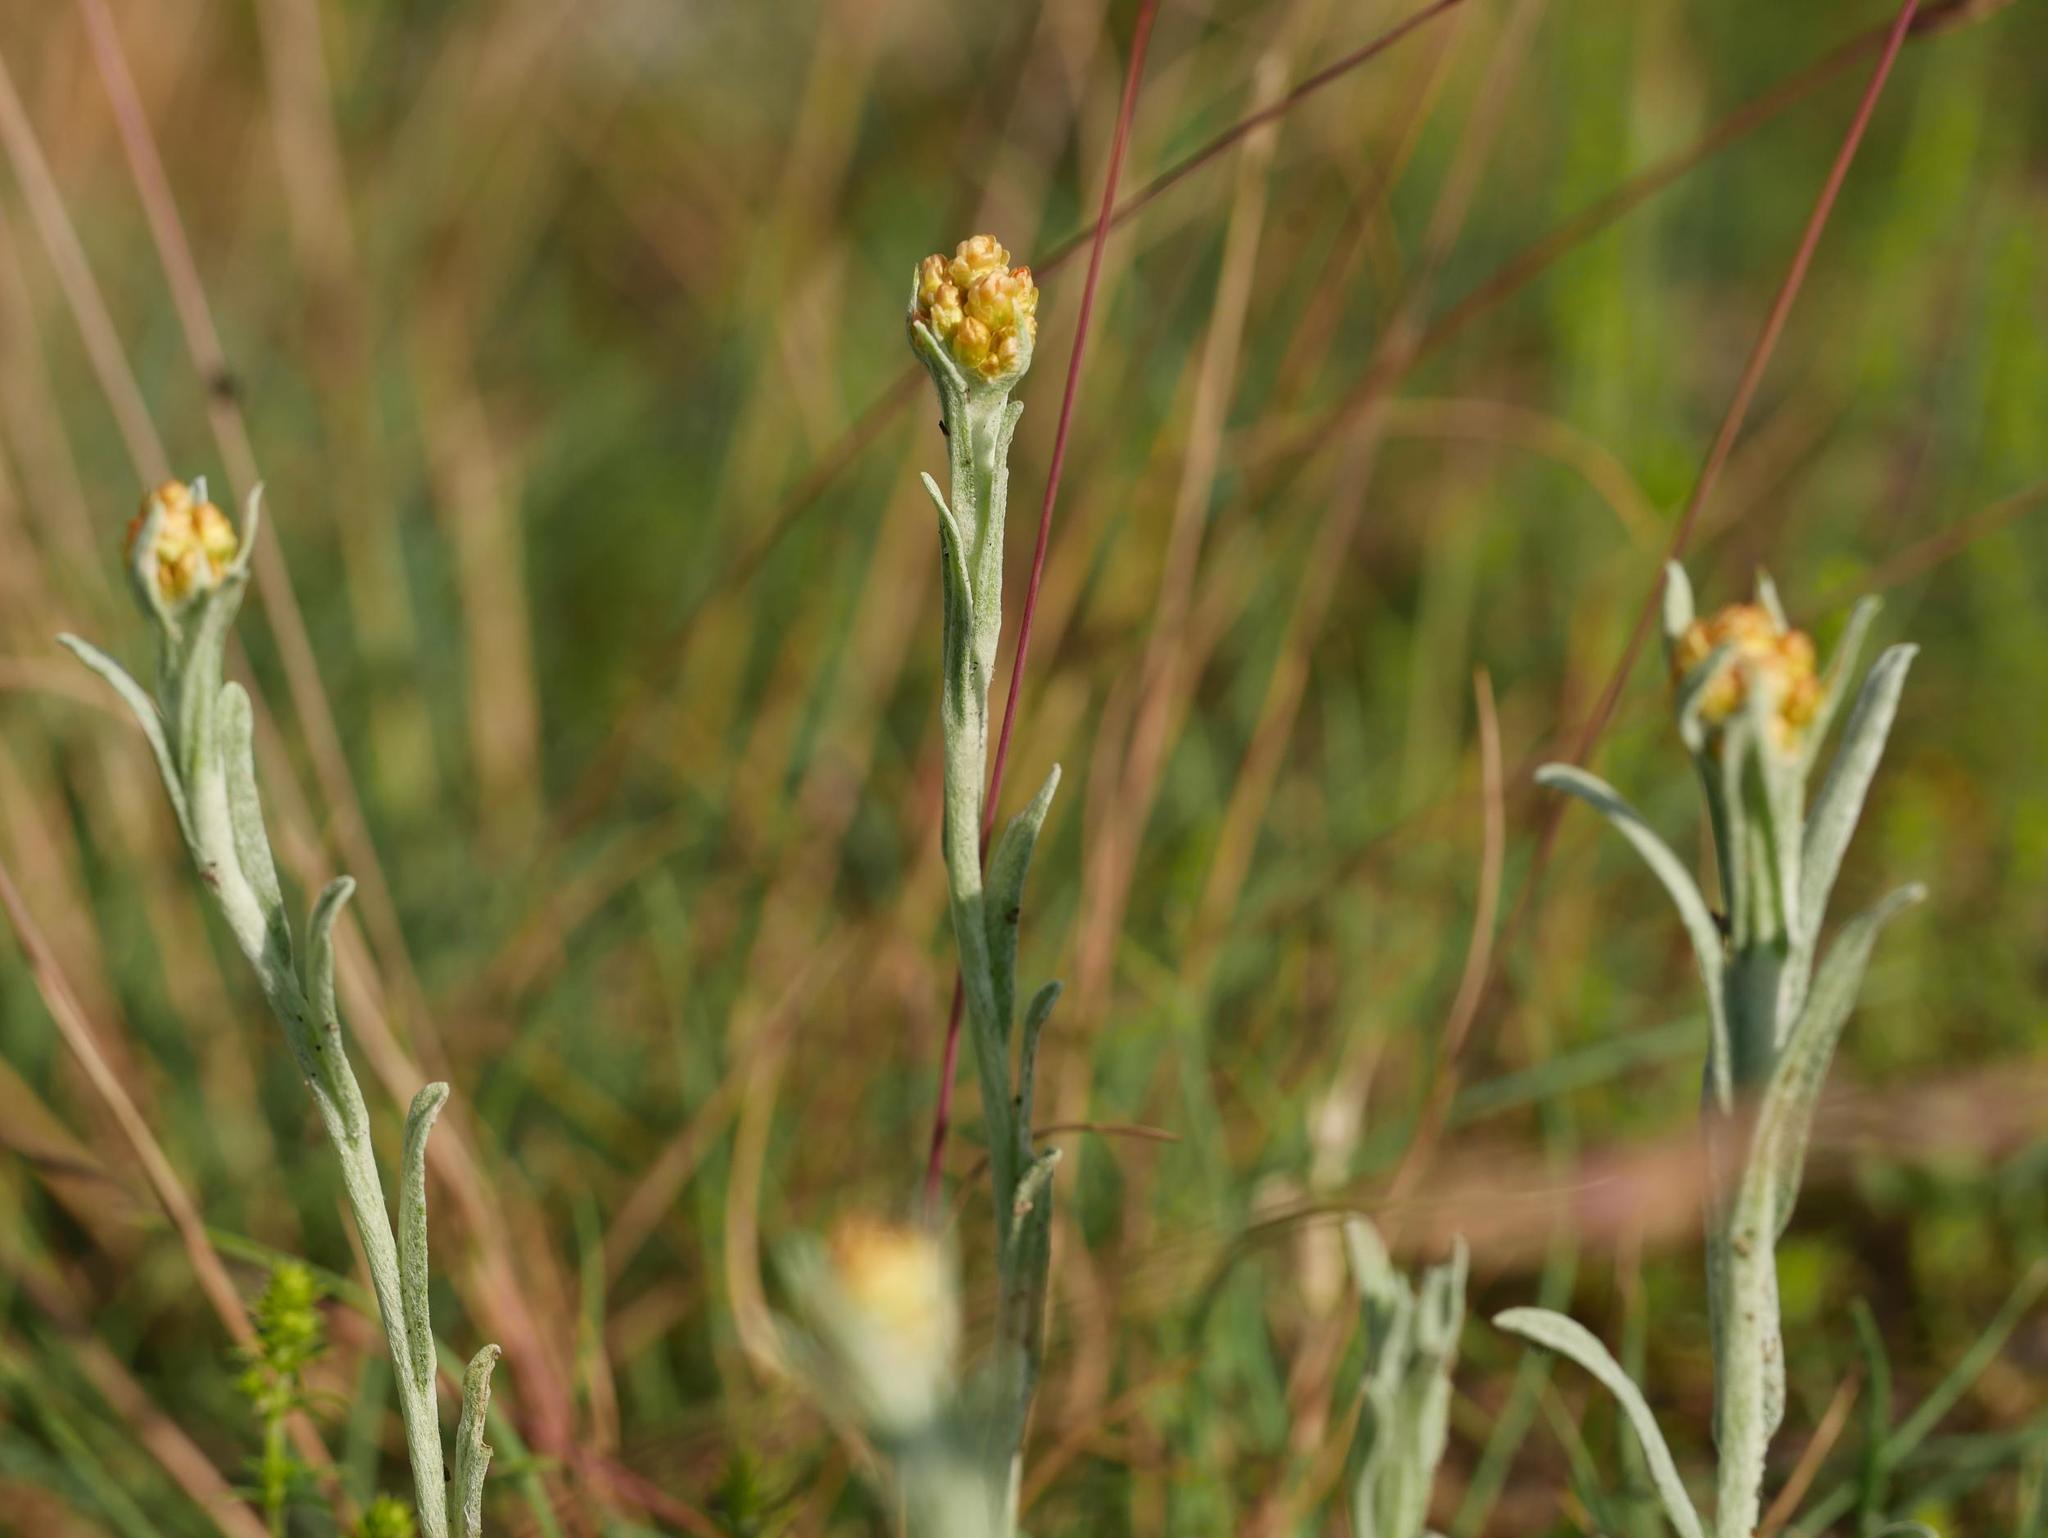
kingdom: Plantae
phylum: Tracheophyta
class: Magnoliopsida
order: Asterales
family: Asteraceae
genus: Helichrysum
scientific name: Helichrysum arenarium
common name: Strawflower
